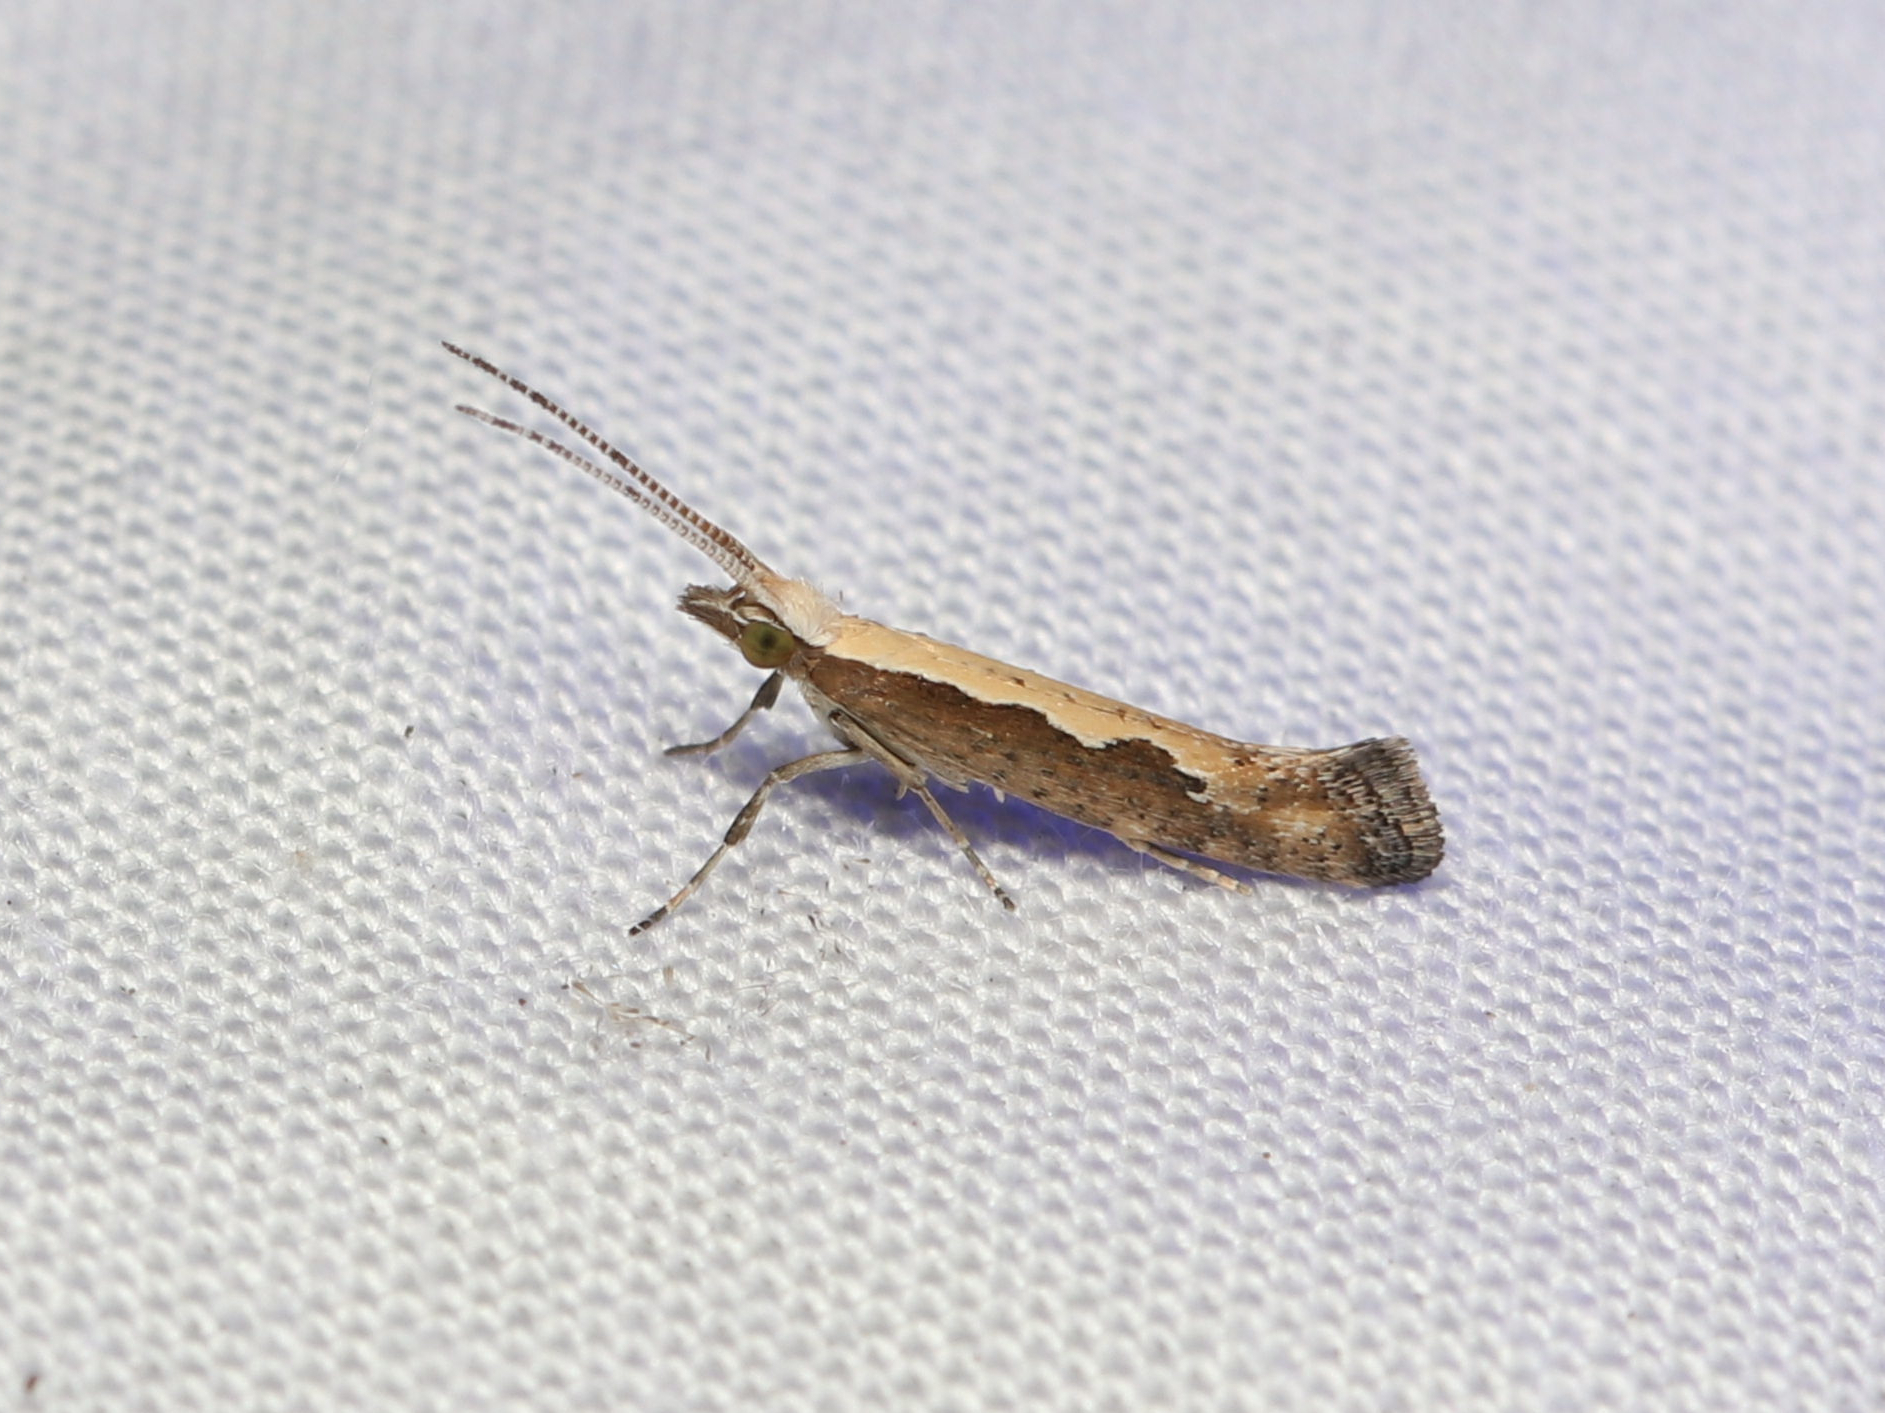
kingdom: Animalia
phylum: Arthropoda
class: Insecta
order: Lepidoptera
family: Plutellidae
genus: Plutella
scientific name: Plutella xylostella
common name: Diamond-back moth
